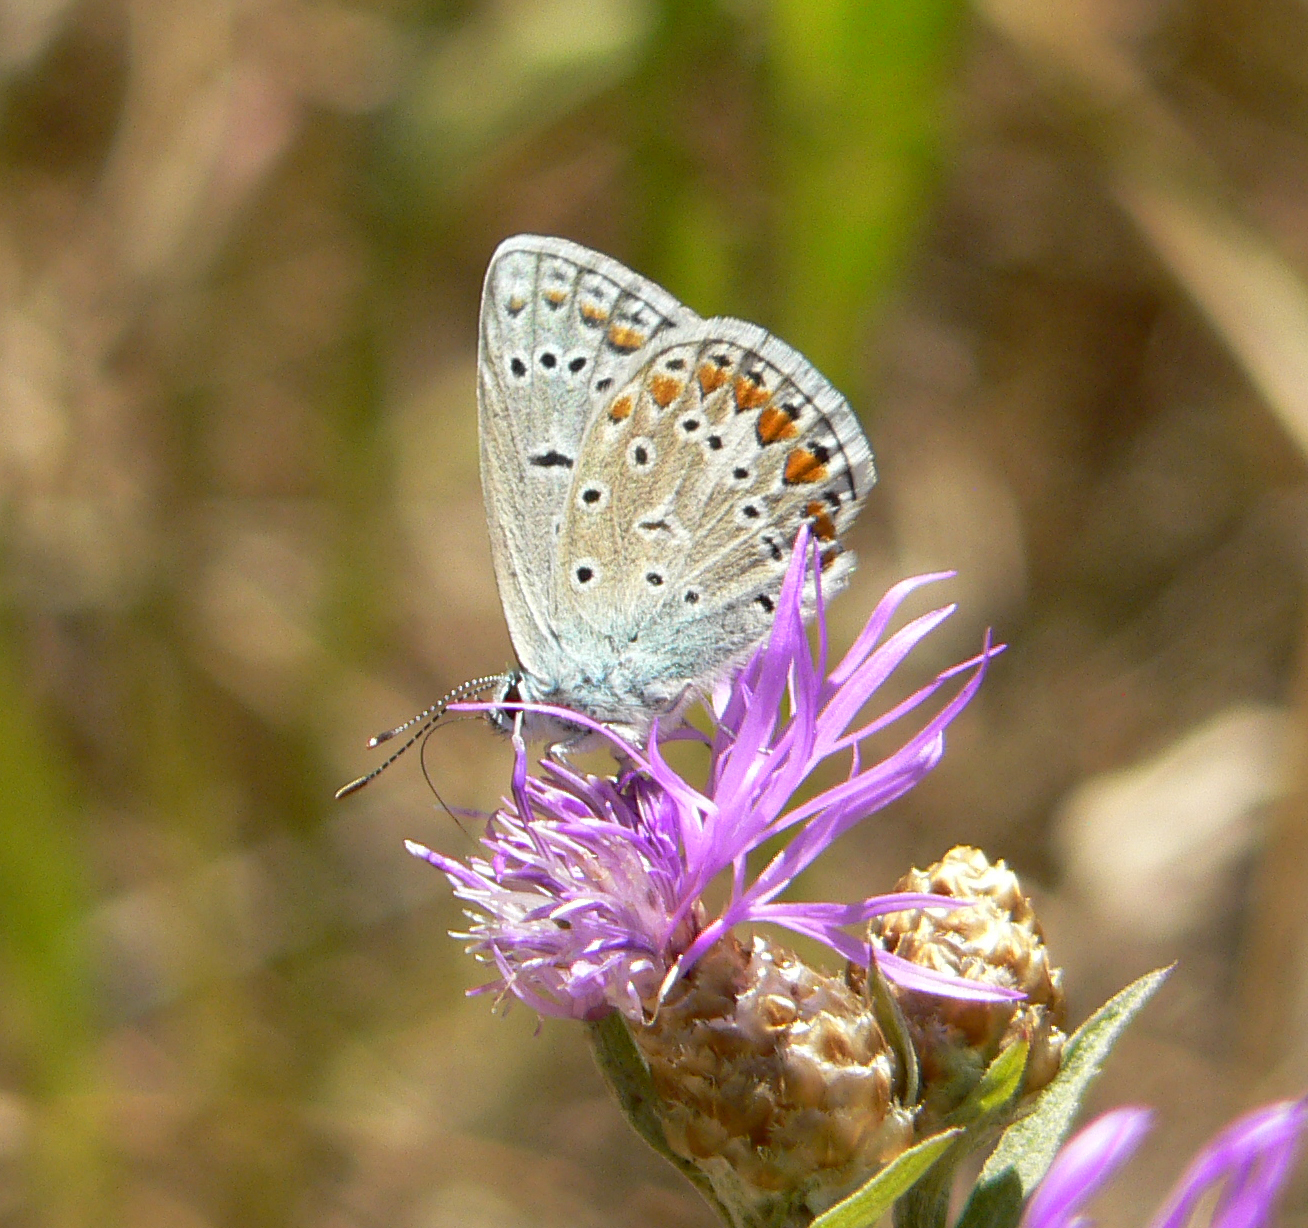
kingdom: Animalia
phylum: Arthropoda
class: Insecta
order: Lepidoptera
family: Lycaenidae
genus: Polyommatus
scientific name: Polyommatus icarus
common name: Common blue
